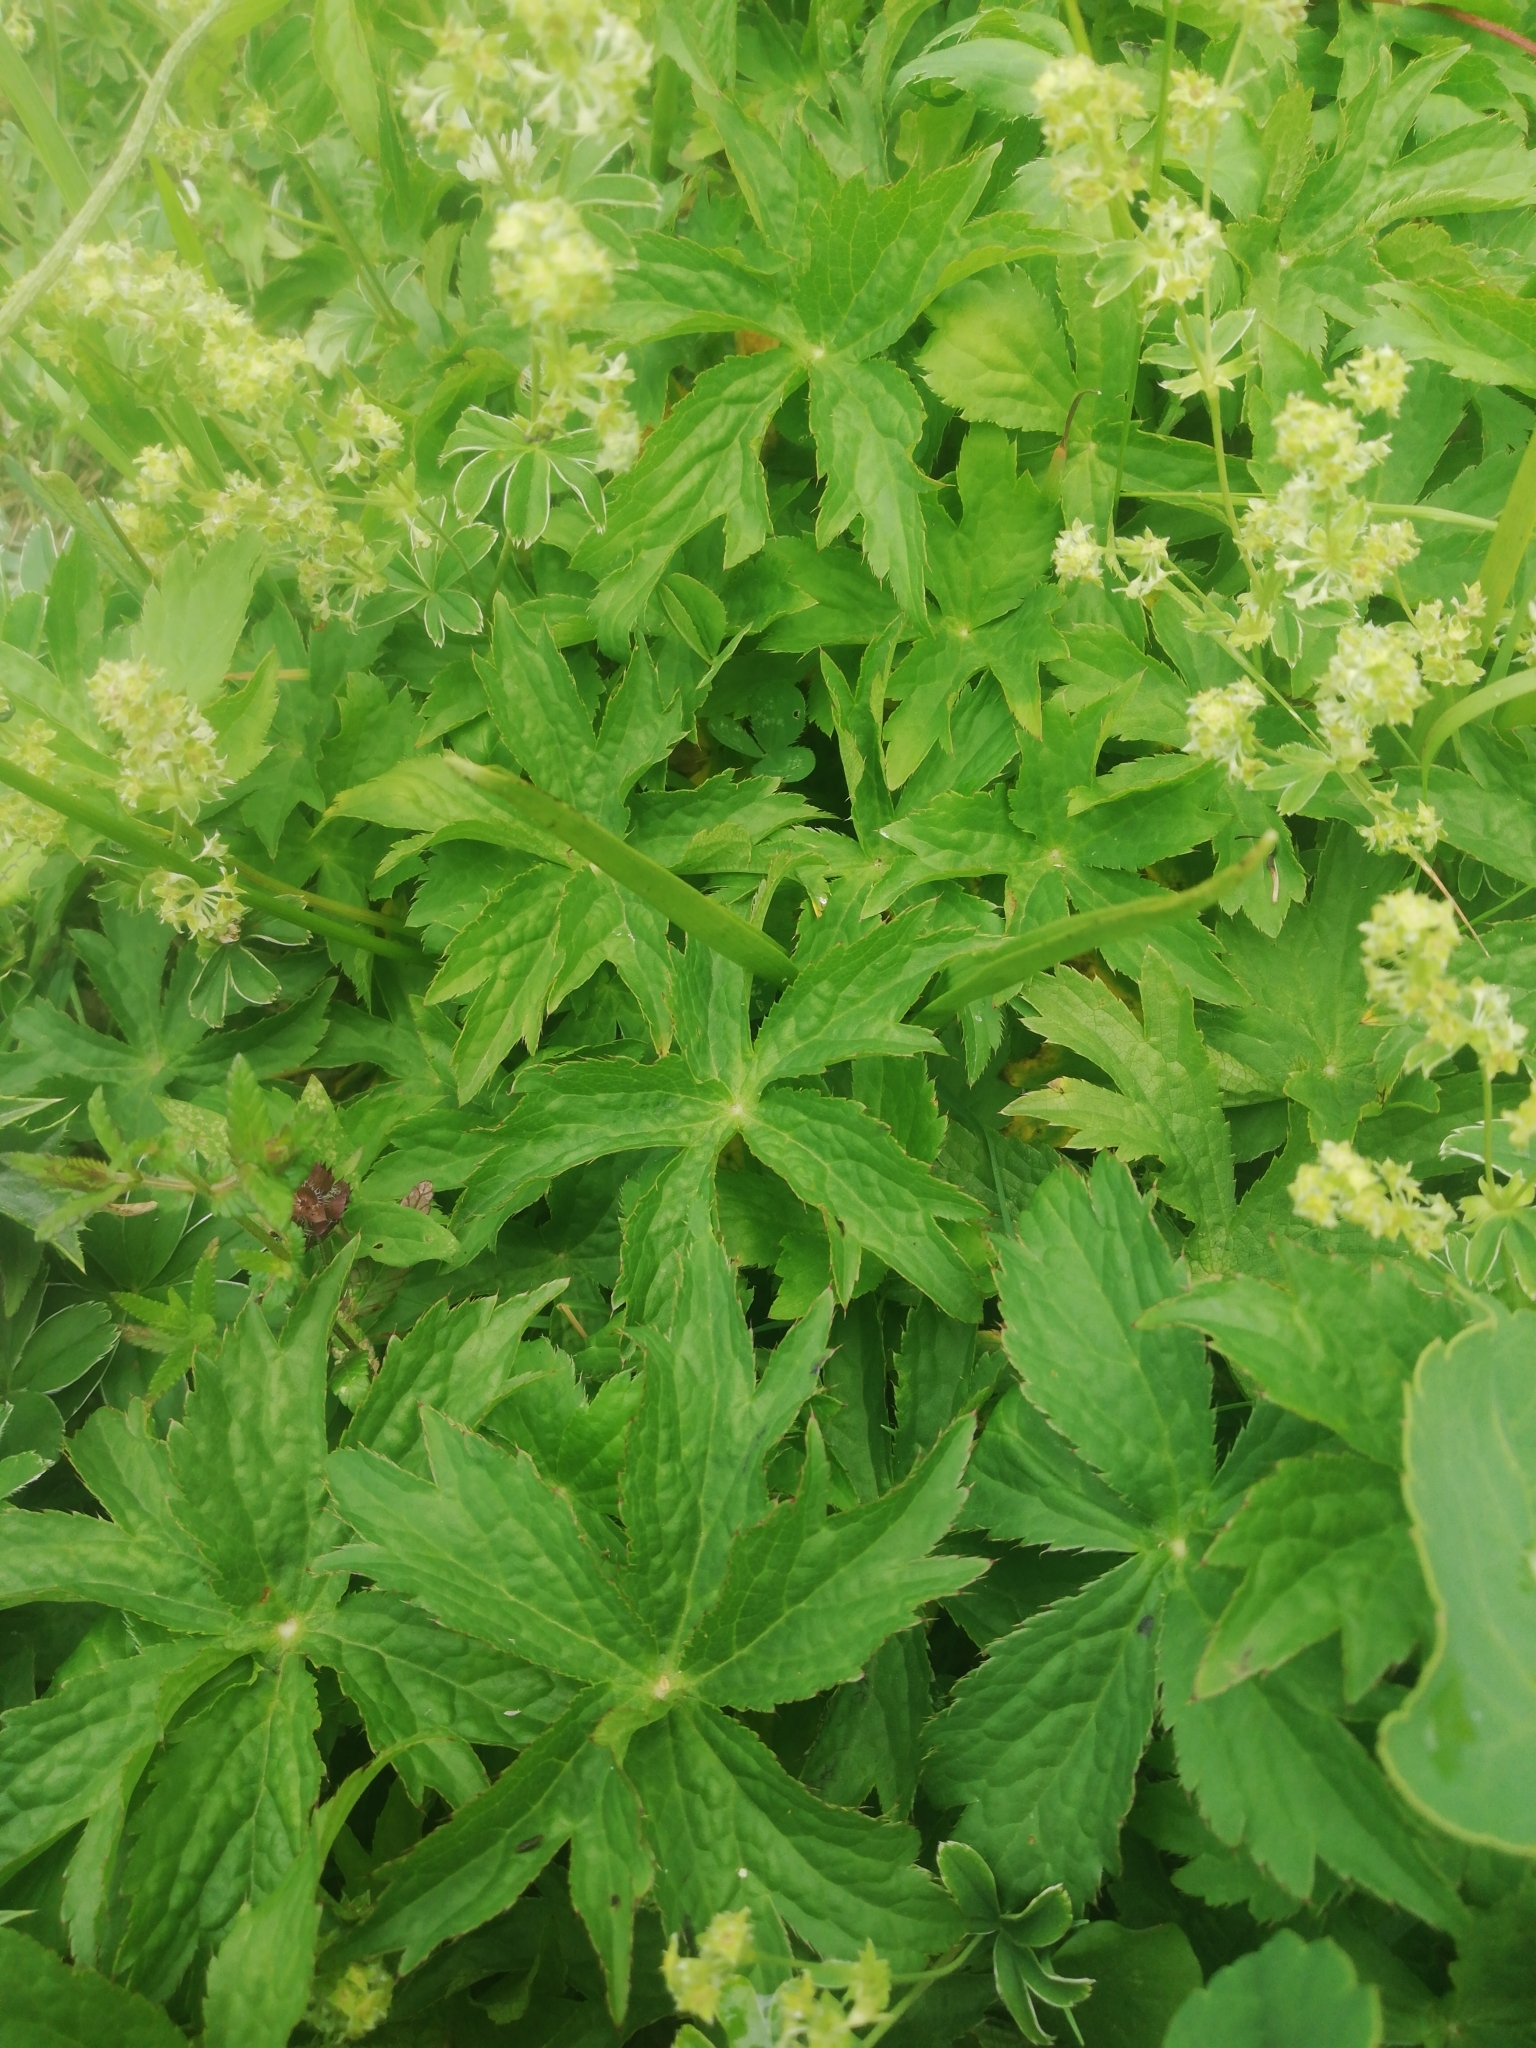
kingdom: Plantae
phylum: Tracheophyta
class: Magnoliopsida
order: Apiales
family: Apiaceae
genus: Astrantia
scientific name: Astrantia major
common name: Greater masterwort
